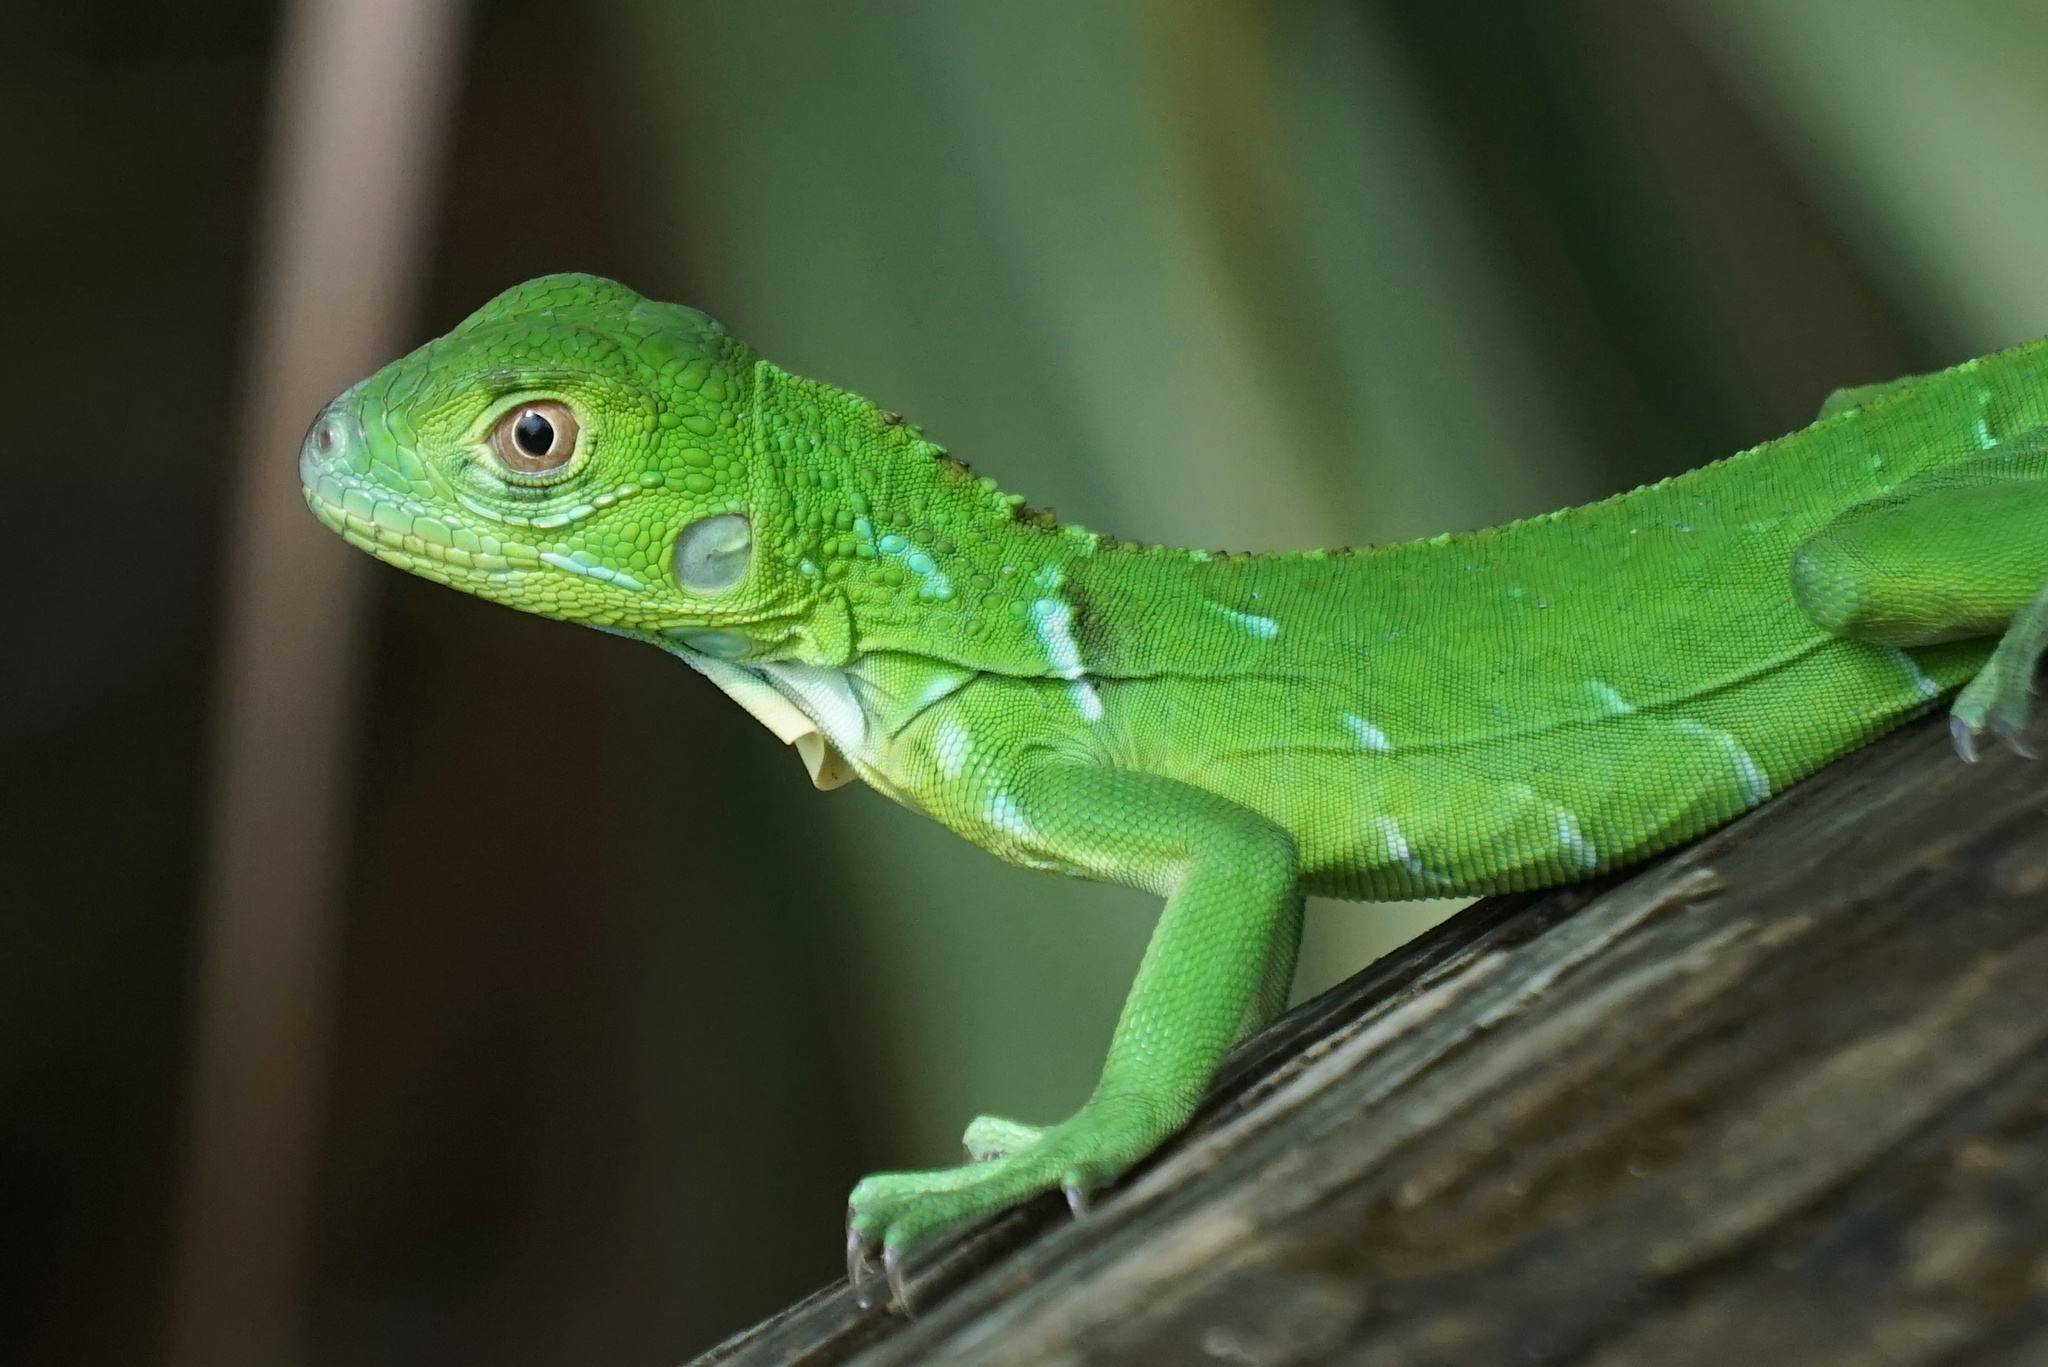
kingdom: Animalia
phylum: Chordata
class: Squamata
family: Iguanidae
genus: Iguana
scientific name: Iguana iguana
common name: Green iguana
